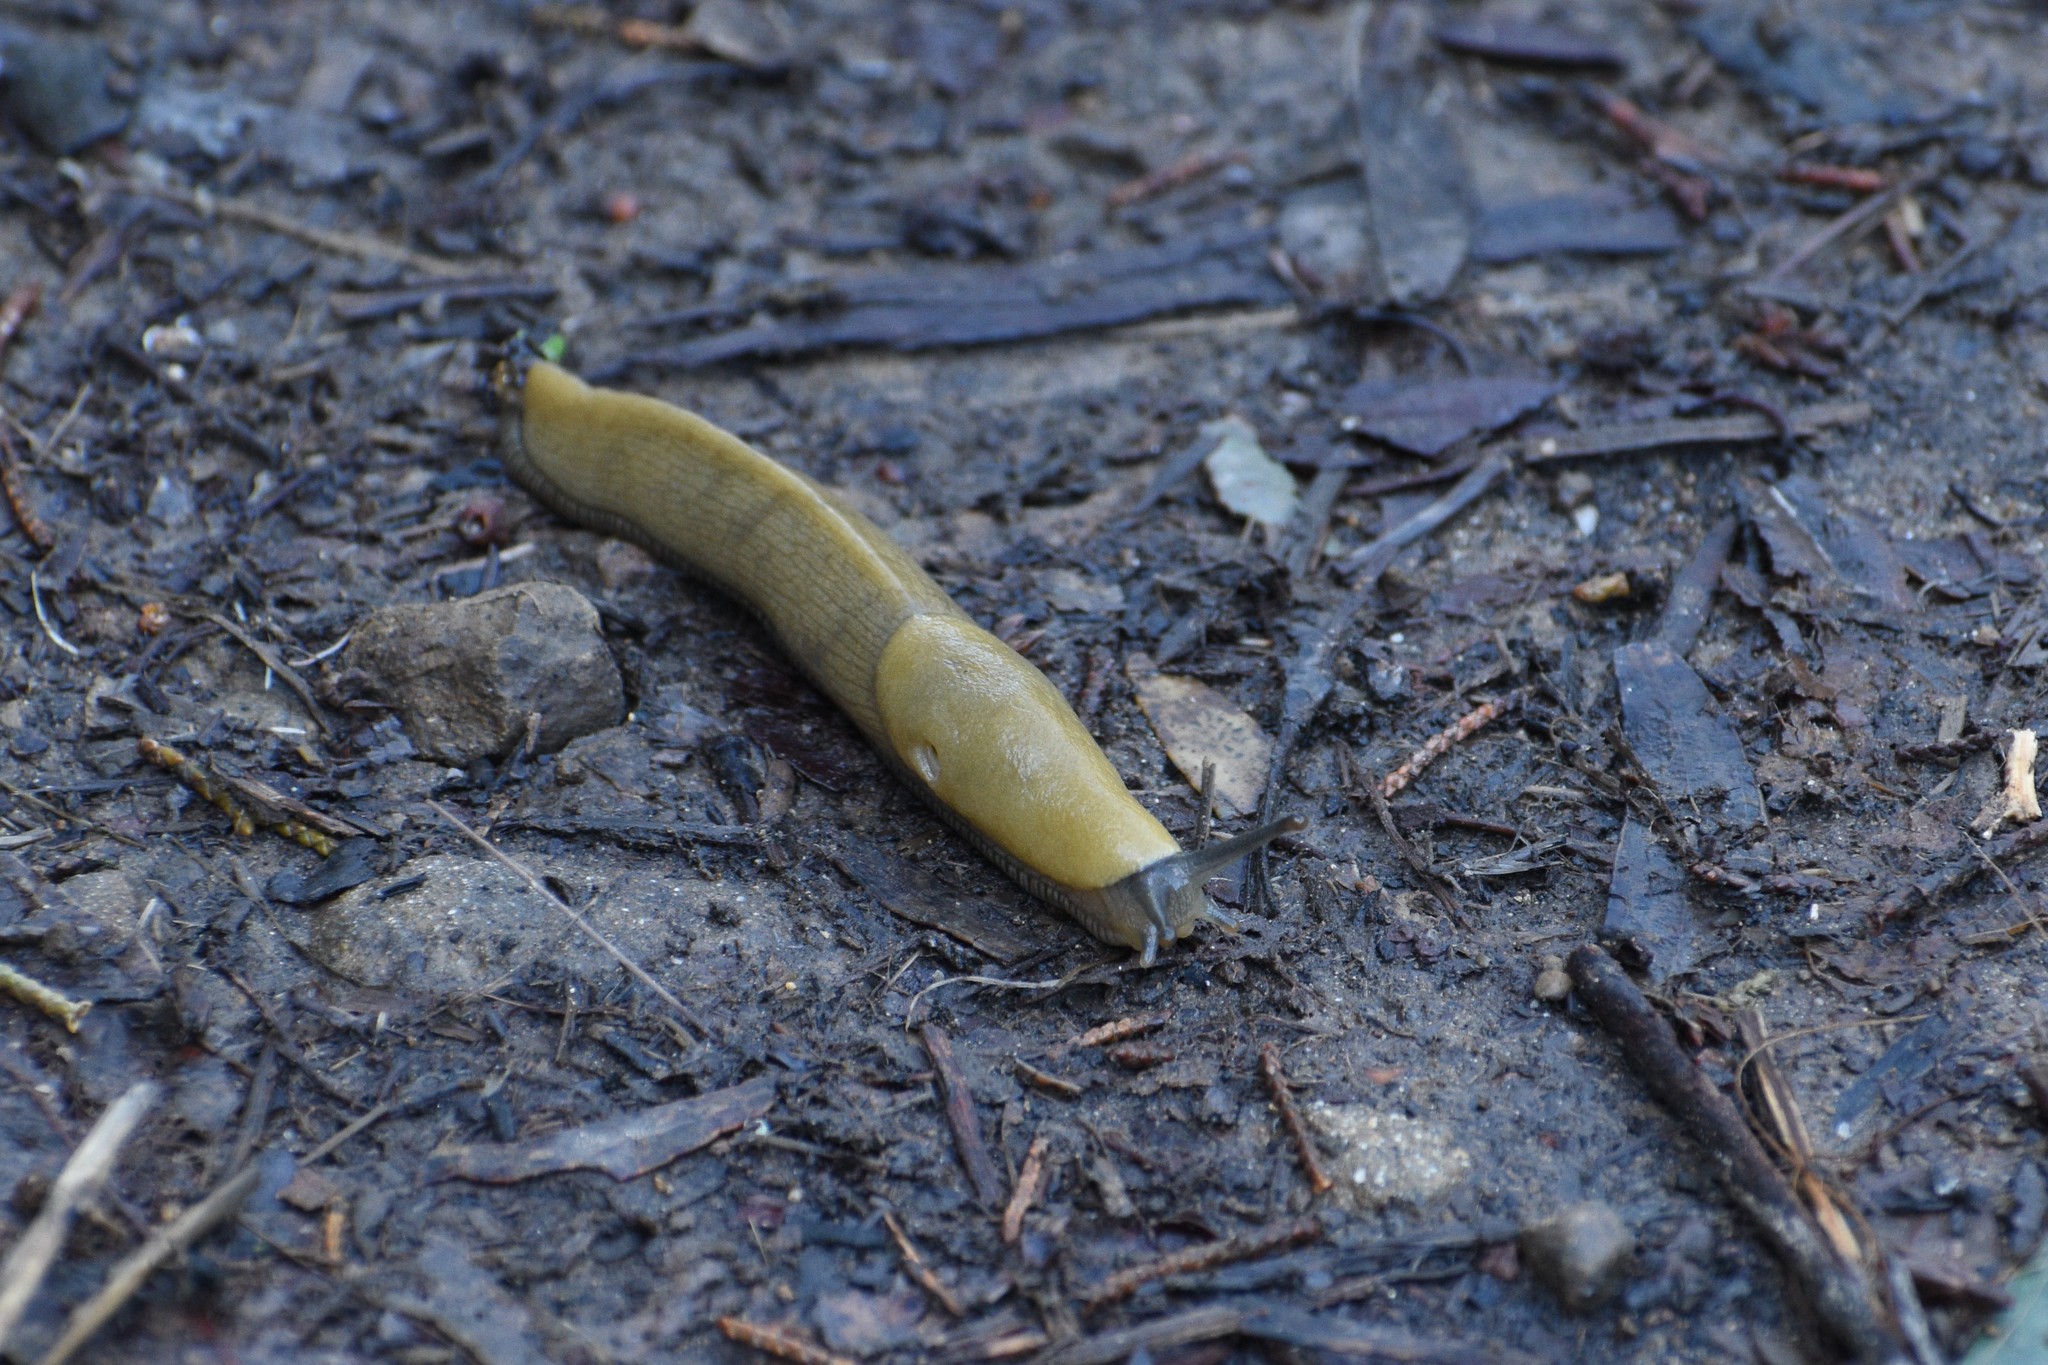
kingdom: Animalia
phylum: Mollusca
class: Gastropoda
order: Stylommatophora
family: Ariolimacidae
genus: Ariolimax
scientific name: Ariolimax brachyphallus
